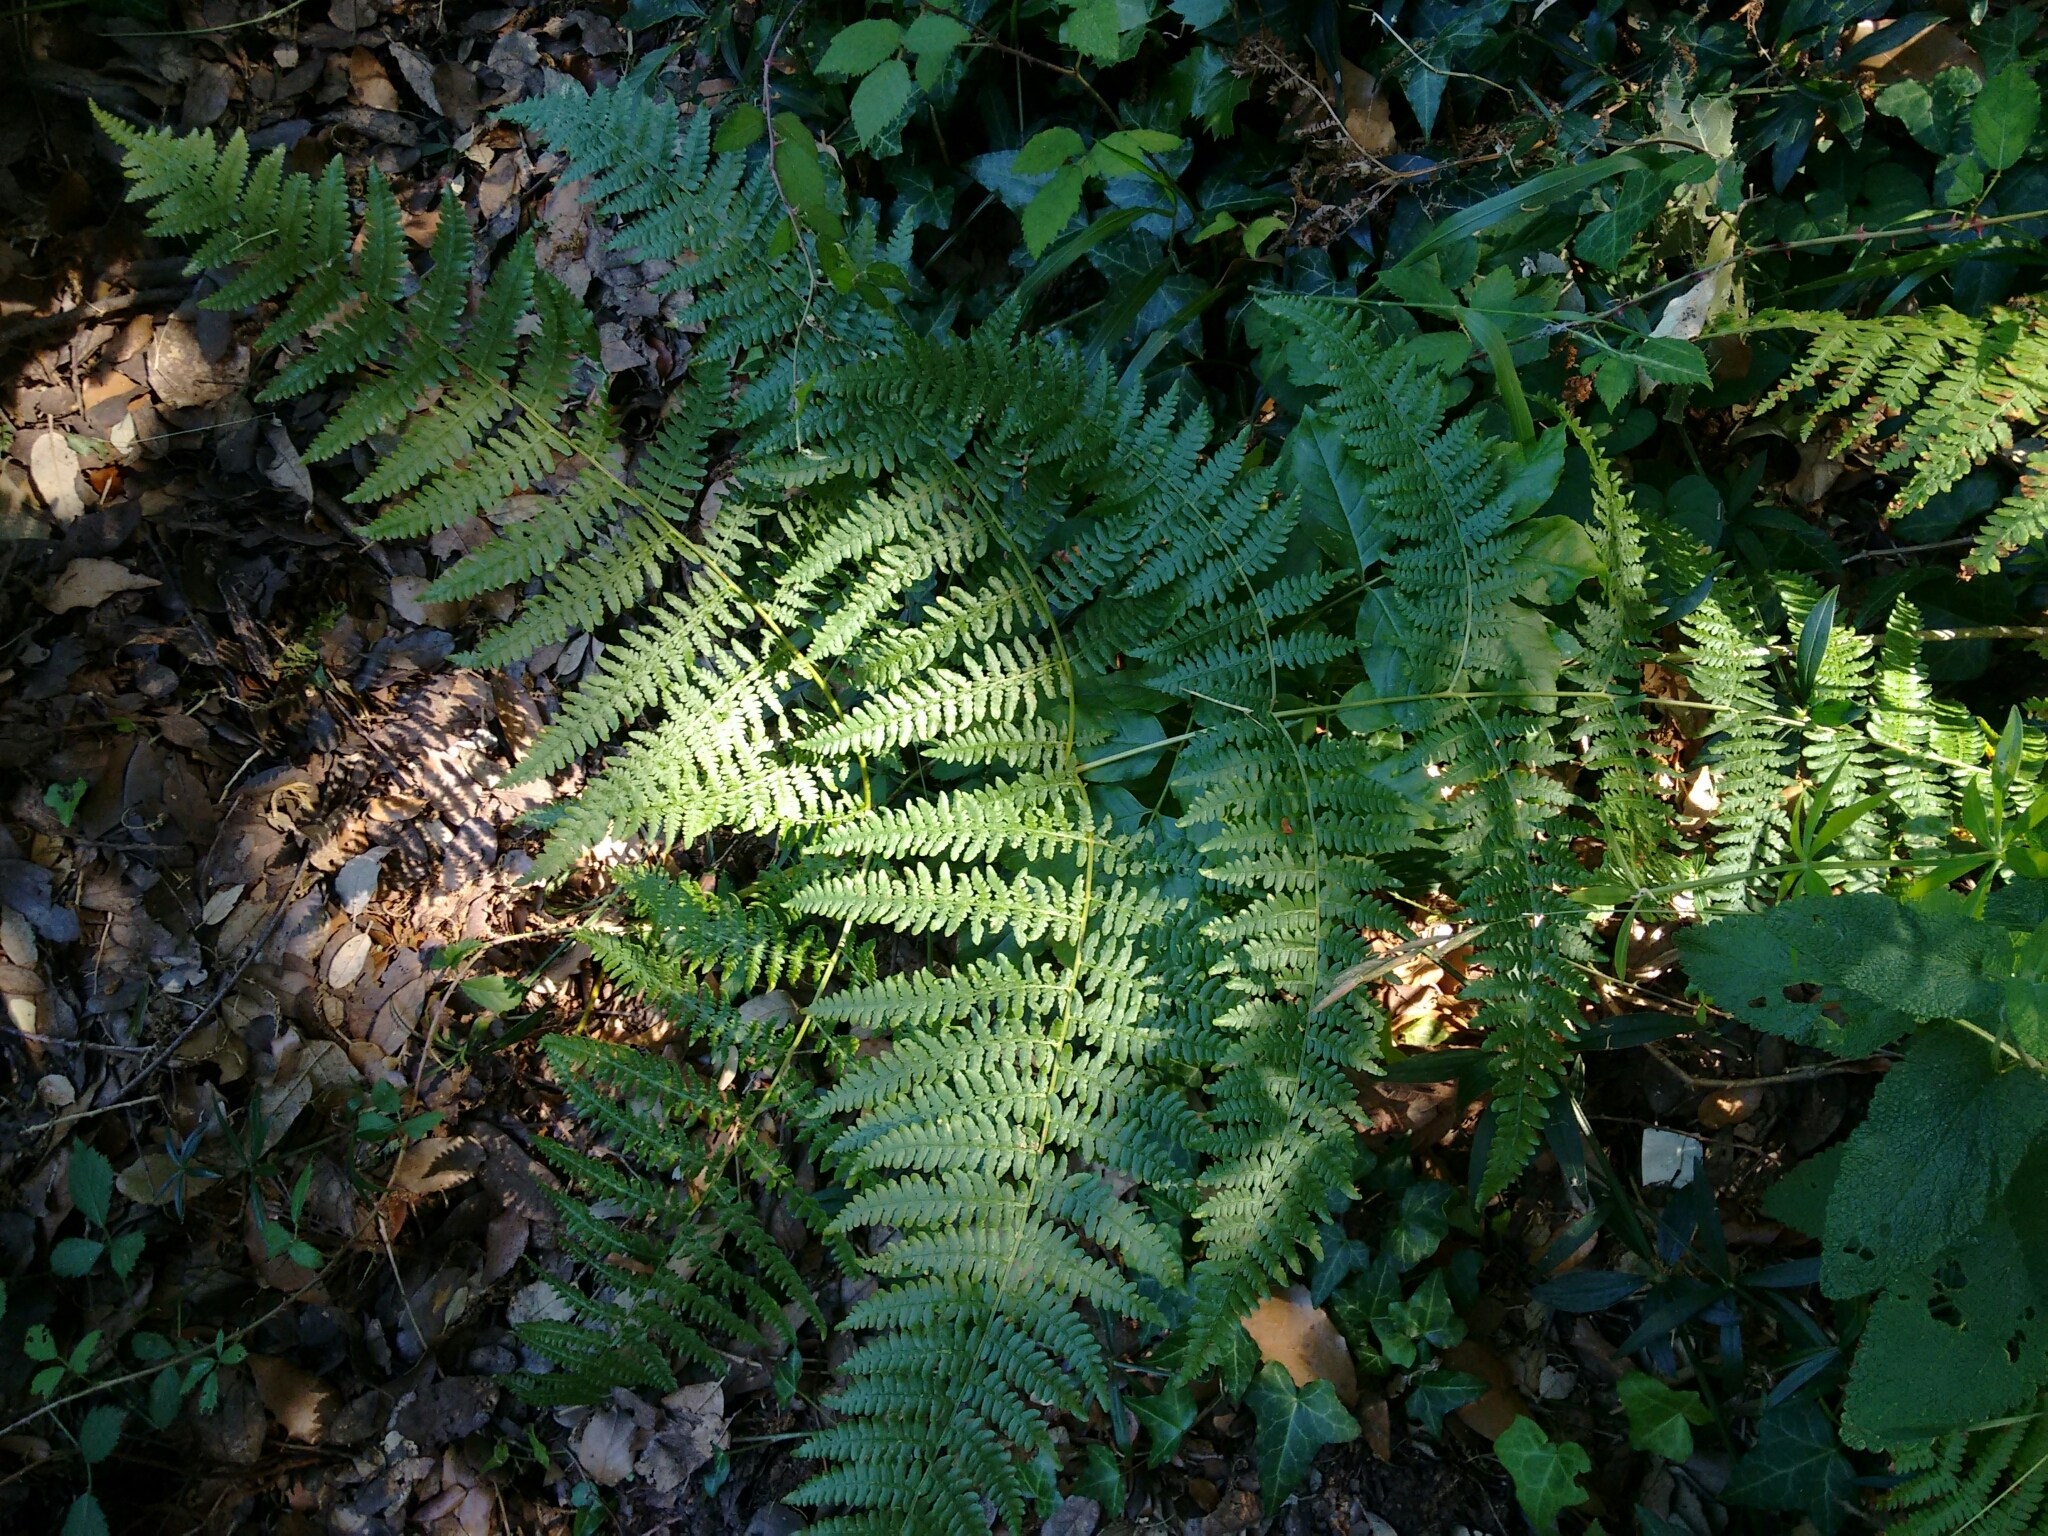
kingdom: Plantae
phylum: Tracheophyta
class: Polypodiopsida
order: Polypodiales
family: Dennstaedtiaceae
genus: Pteridium
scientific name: Pteridium aquilinum
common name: Bracken
